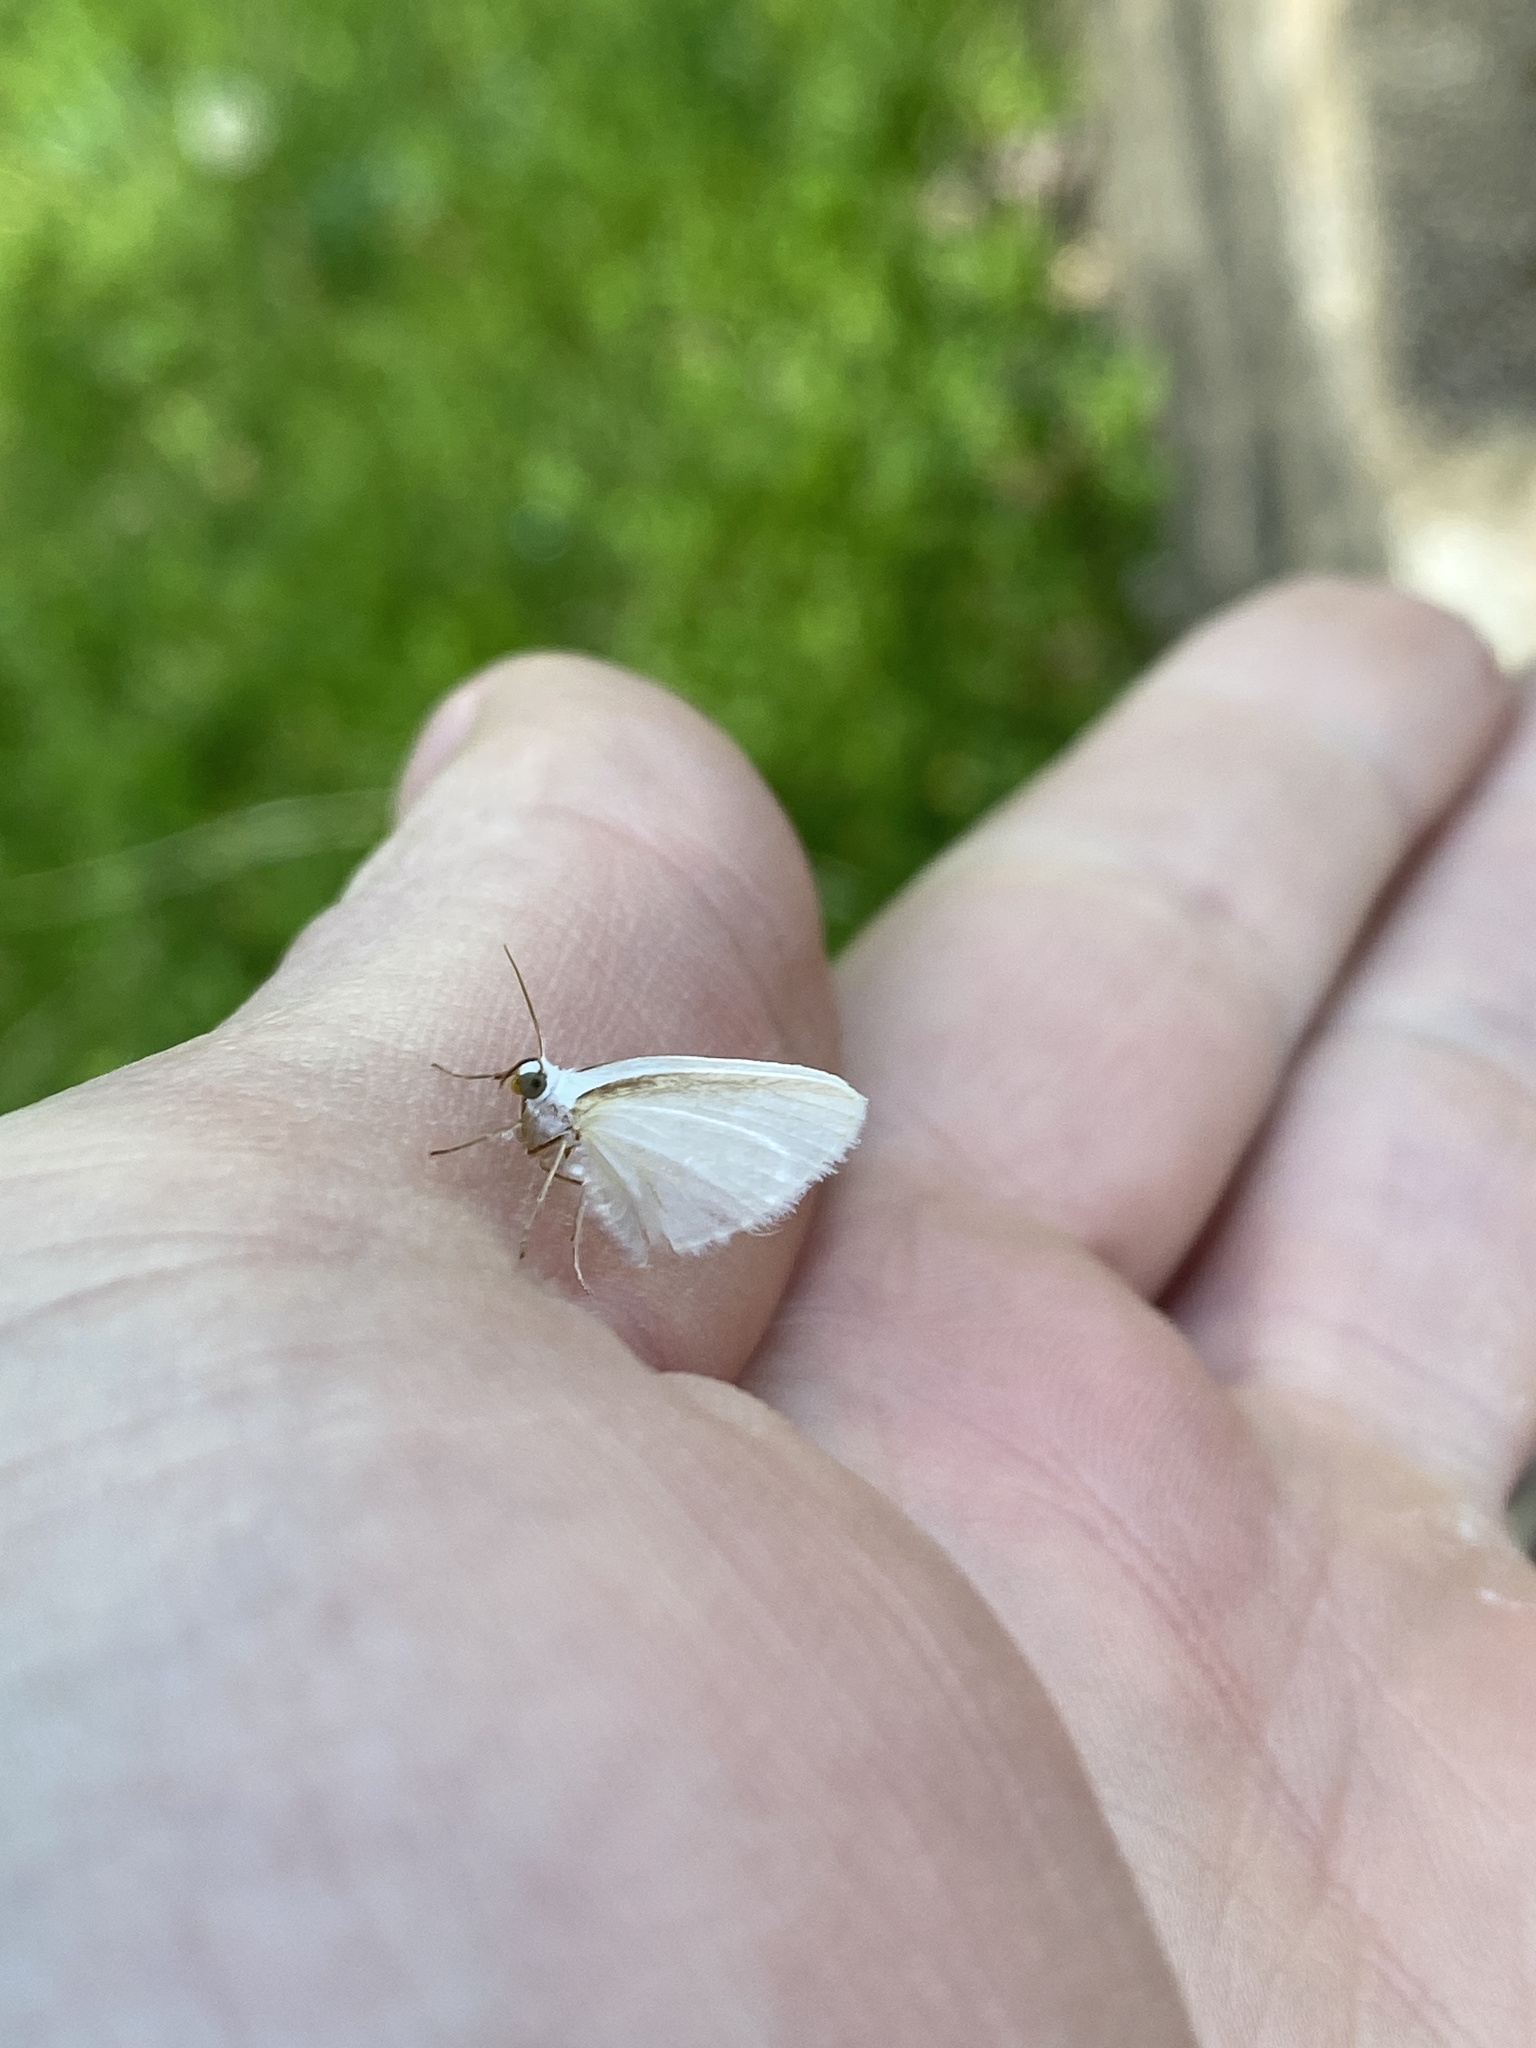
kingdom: Animalia
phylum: Arthropoda
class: Insecta
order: Lepidoptera
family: Geometridae
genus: Lomographa
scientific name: Lomographa vestaliata
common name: White spring moth
